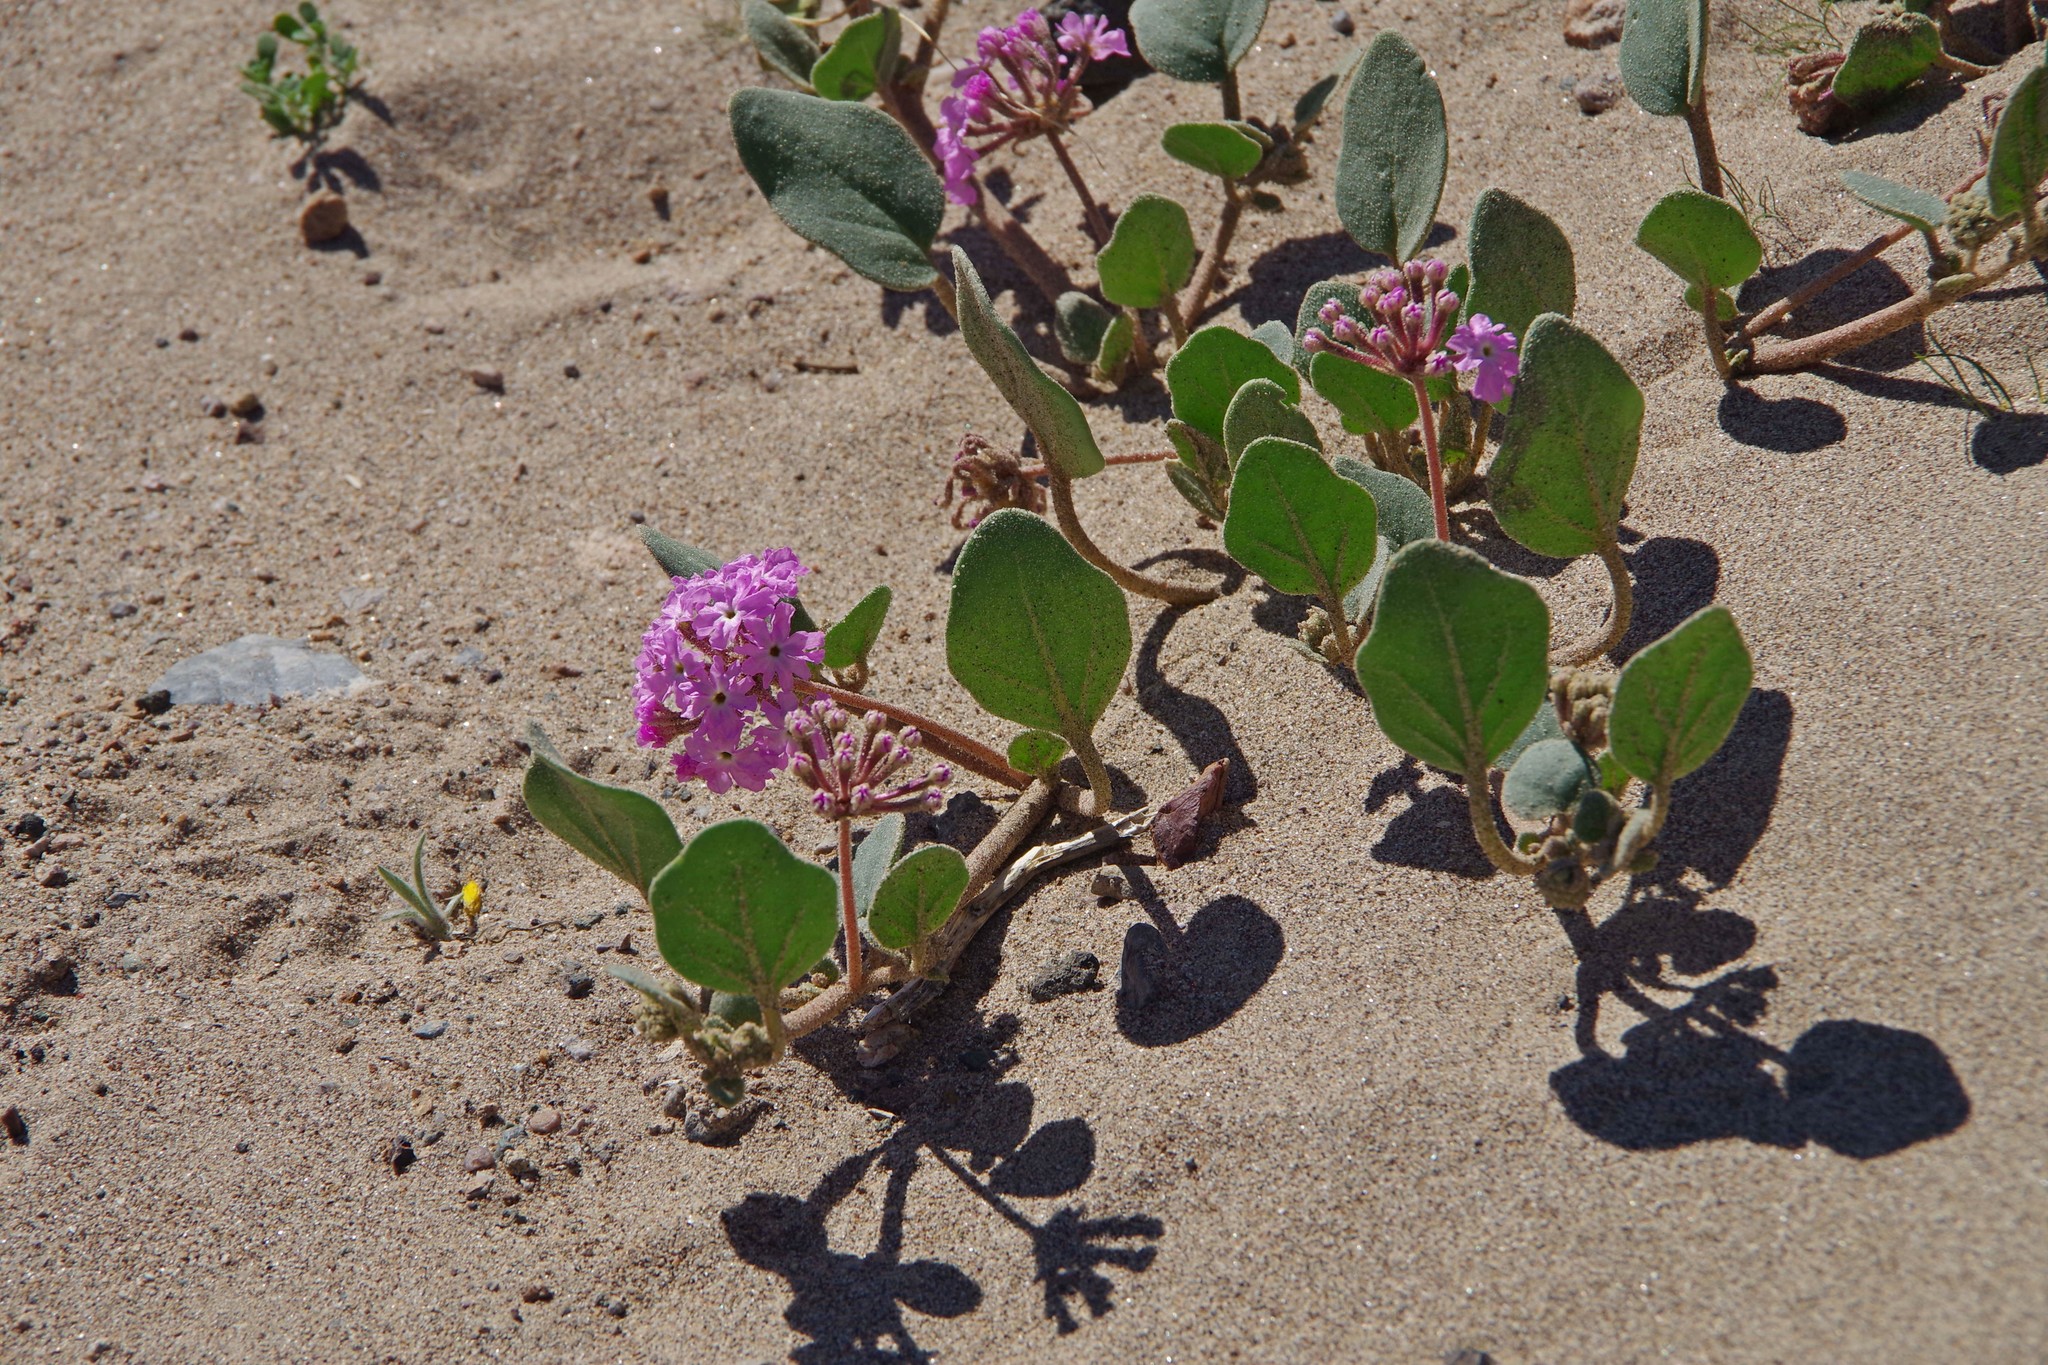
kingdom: Plantae
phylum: Tracheophyta
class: Magnoliopsida
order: Caryophyllales
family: Nyctaginaceae
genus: Abronia
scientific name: Abronia villosa
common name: Desert sand-verbena
